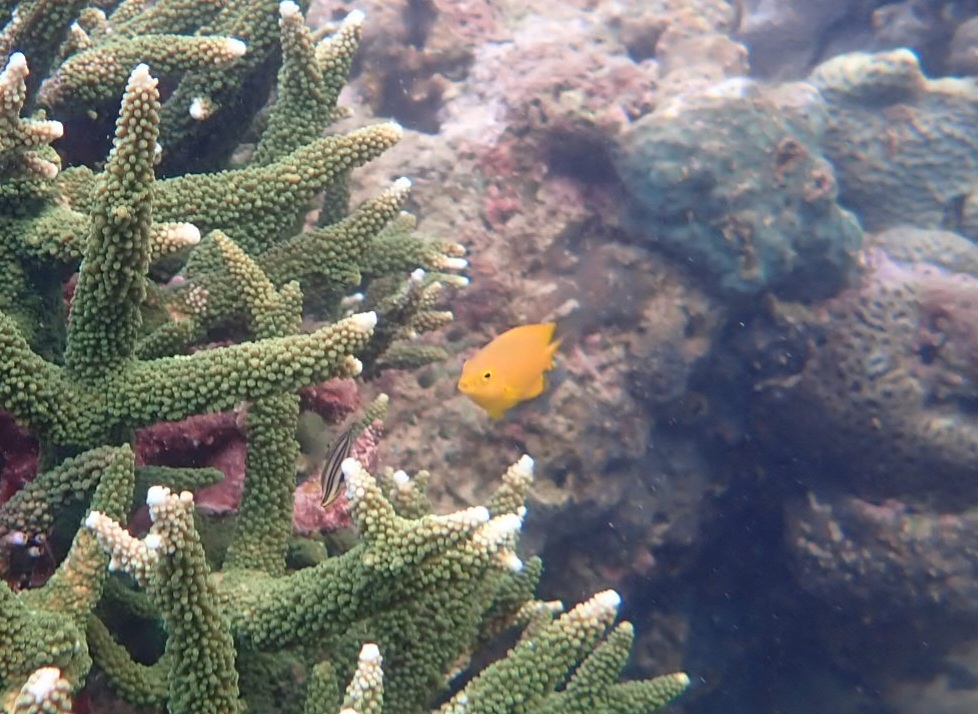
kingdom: Animalia
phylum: Chordata
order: Perciformes
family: Pomacentridae
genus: Pomacentrus
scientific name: Pomacentrus moluccensis
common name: Lemon damsel
